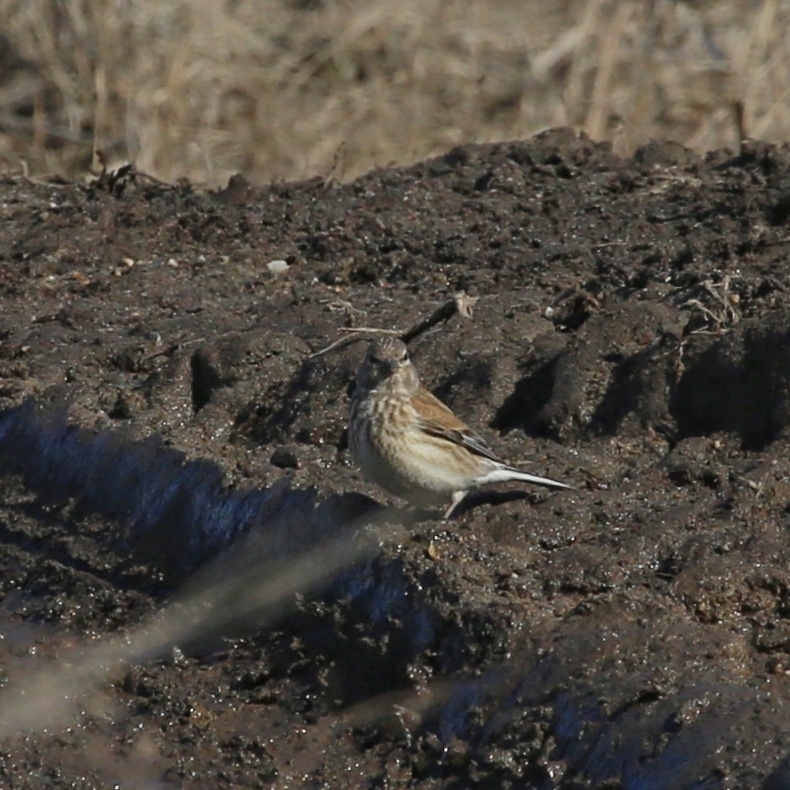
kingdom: Animalia
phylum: Chordata
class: Aves
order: Passeriformes
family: Fringillidae
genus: Linaria
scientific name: Linaria cannabina
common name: Common linnet
